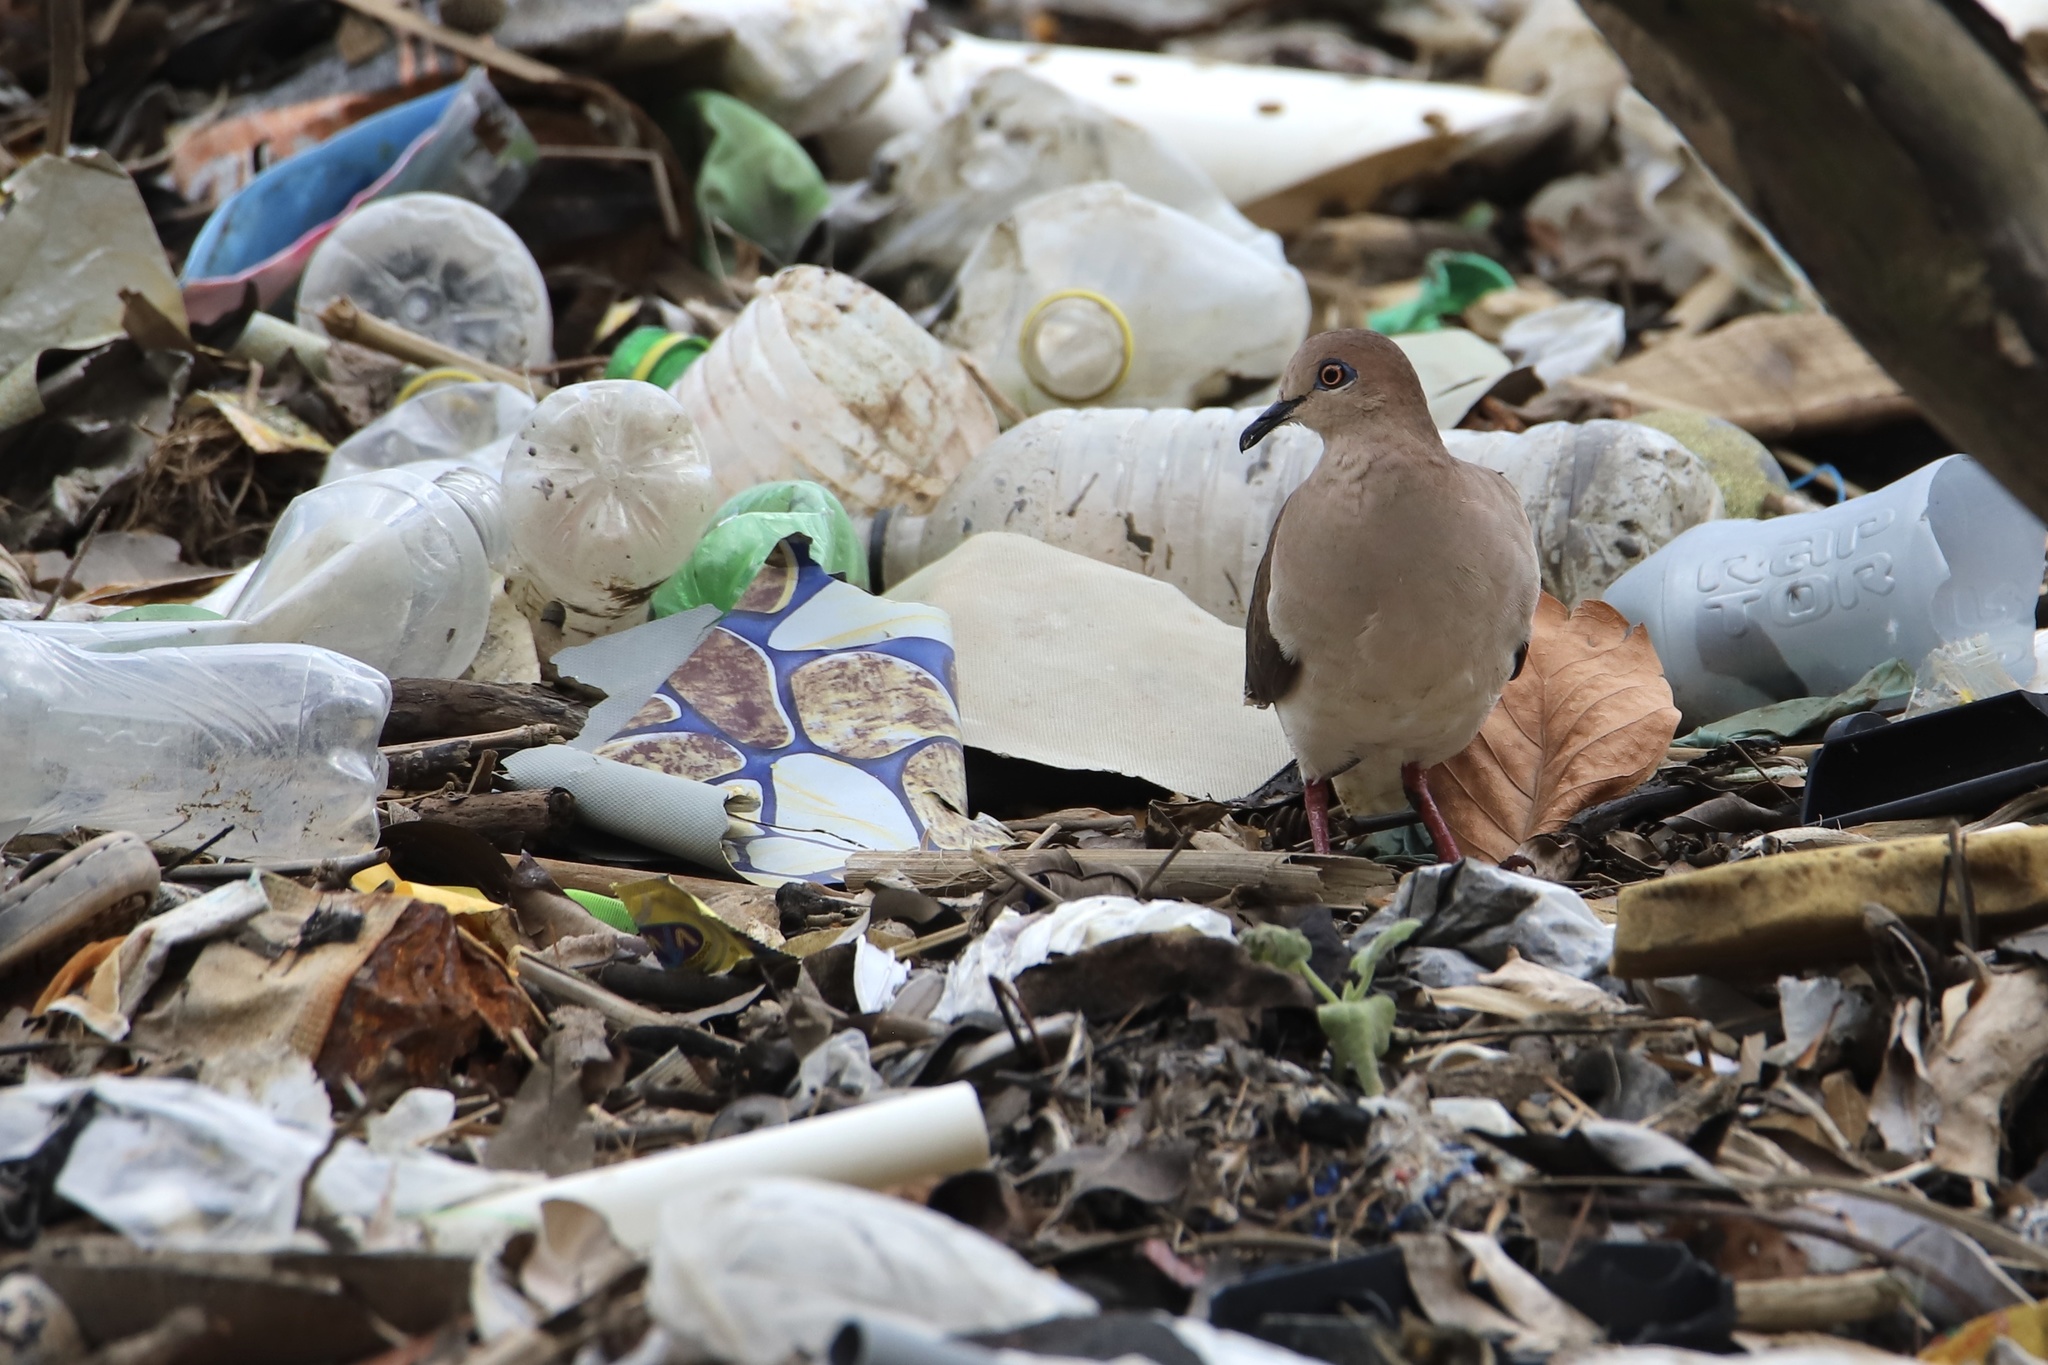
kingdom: Animalia
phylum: Chordata
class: Aves
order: Columbiformes
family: Columbidae
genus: Leptotila
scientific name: Leptotila verreauxi
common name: White-tipped dove
